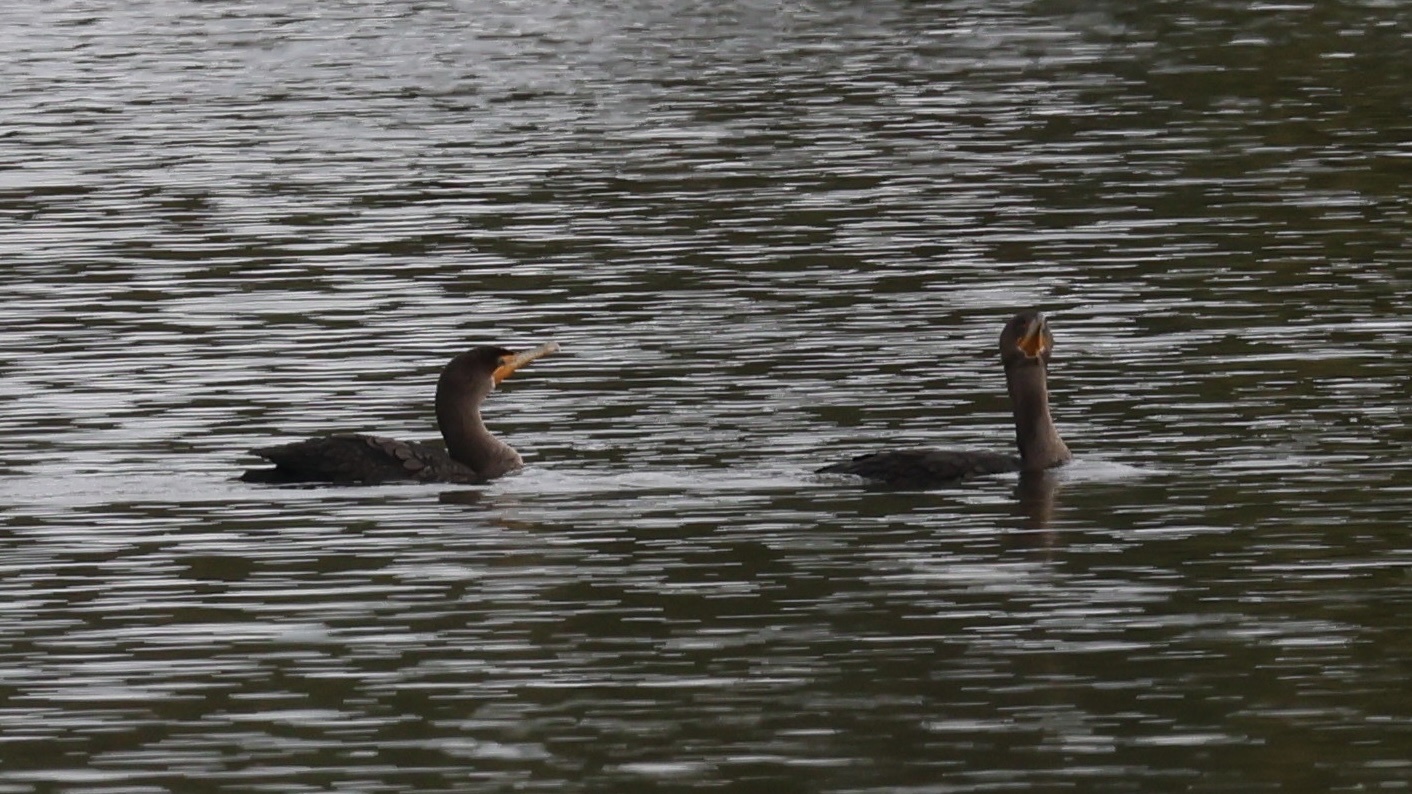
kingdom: Animalia
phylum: Chordata
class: Aves
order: Suliformes
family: Phalacrocoracidae
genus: Phalacrocorax
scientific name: Phalacrocorax auritus
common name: Double-crested cormorant
